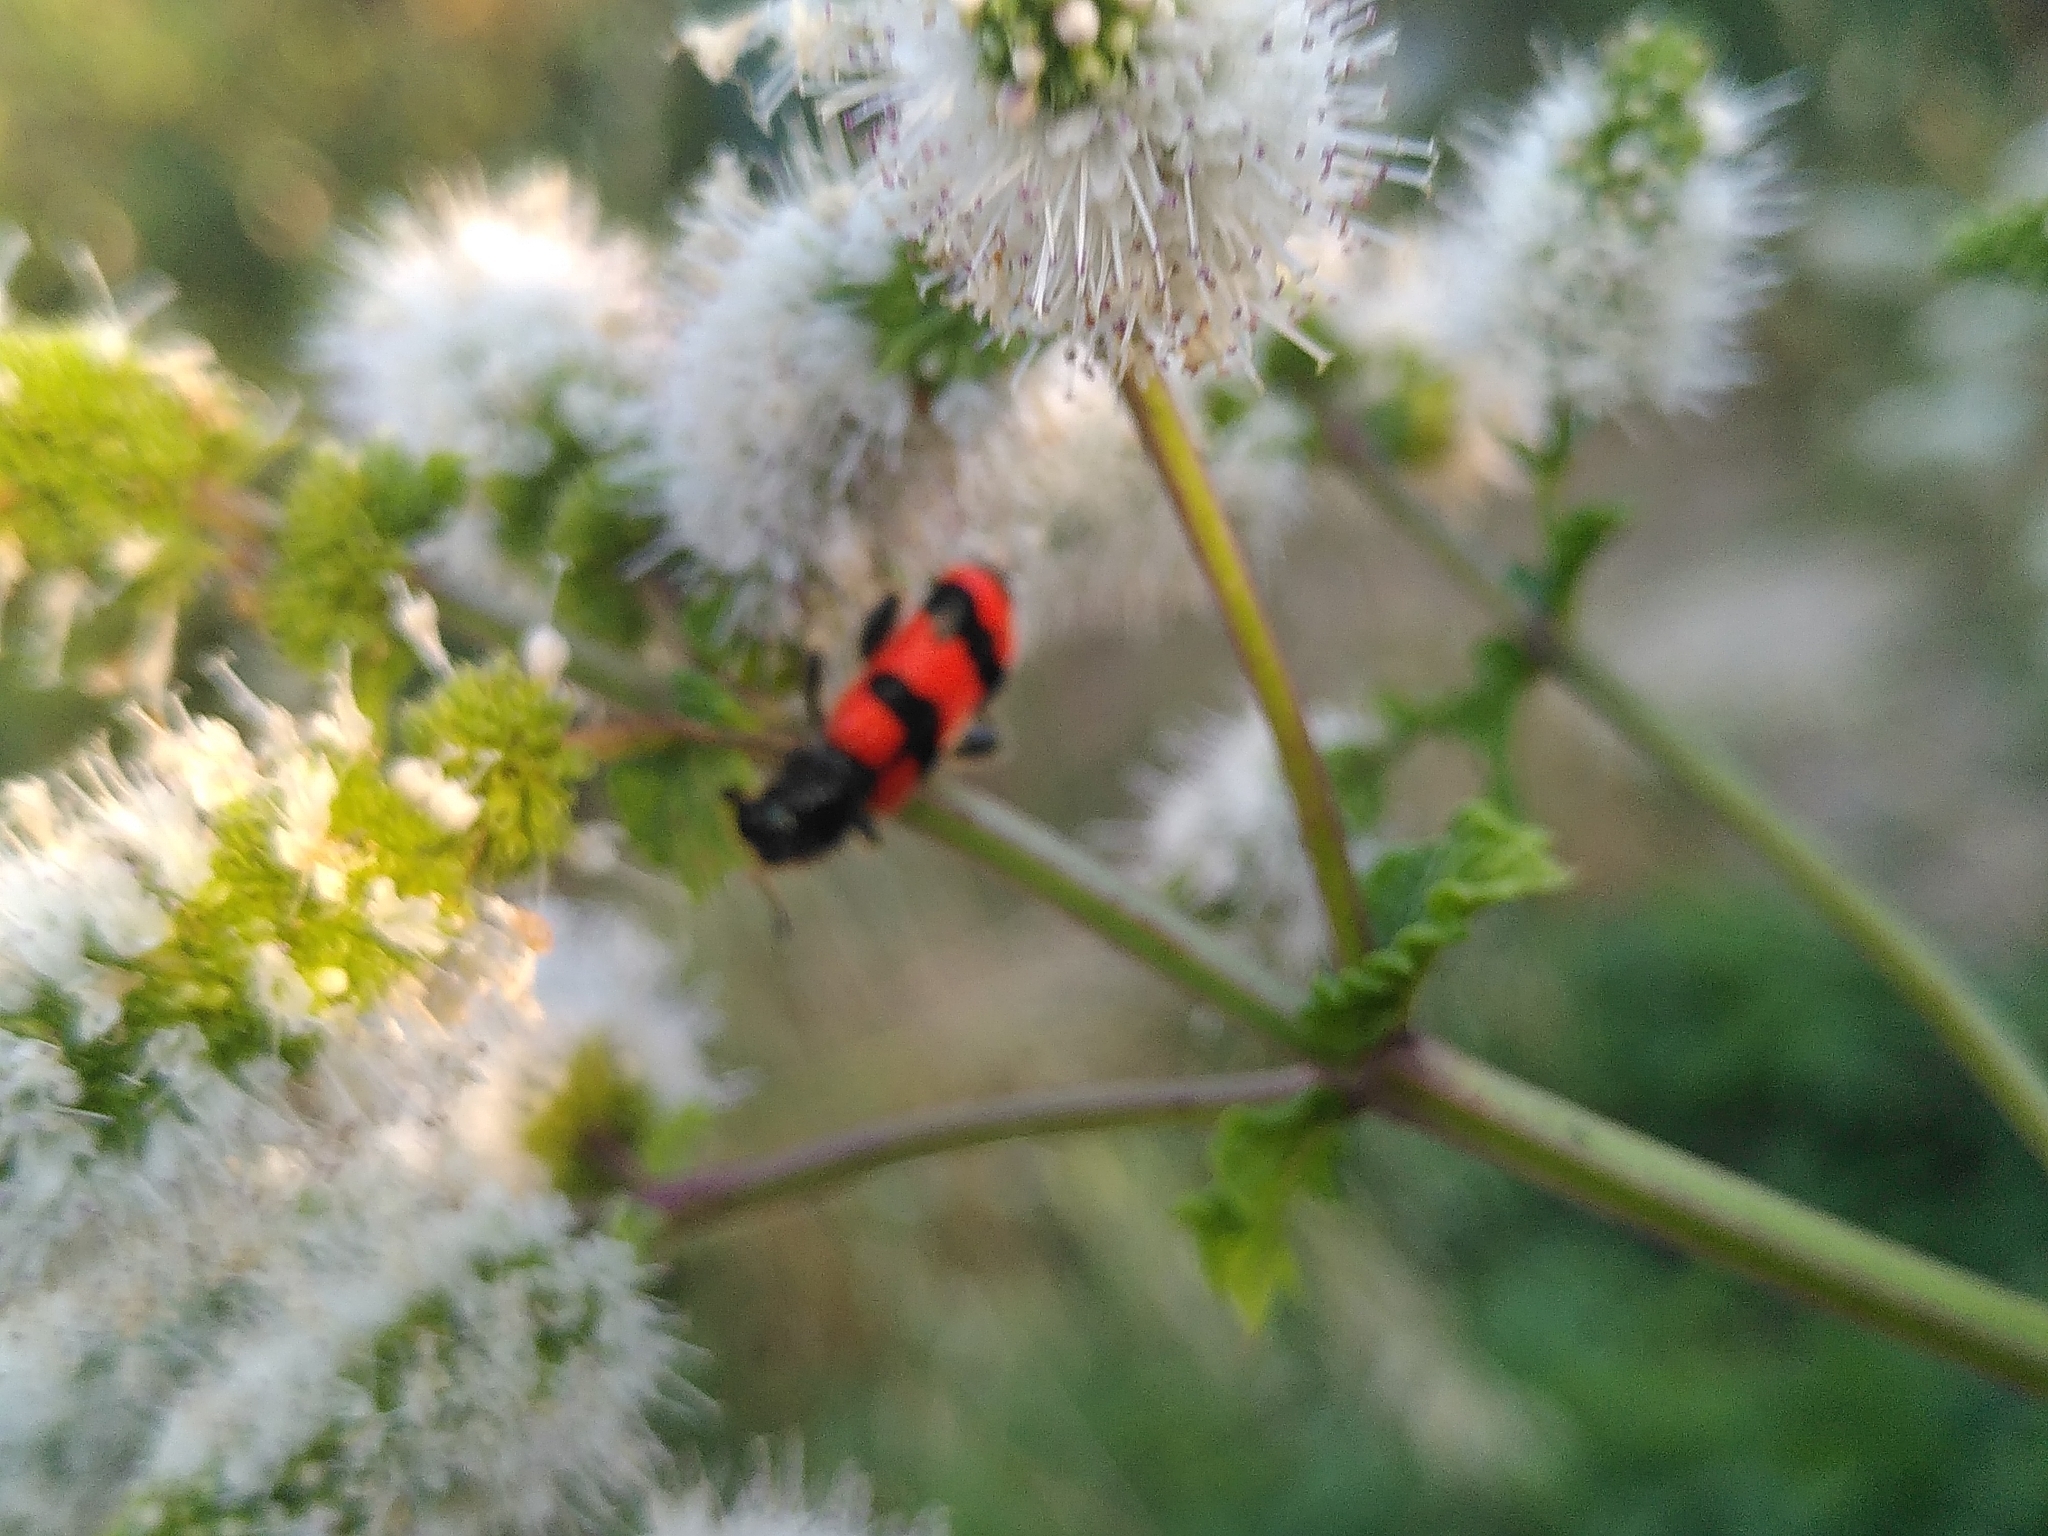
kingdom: Animalia
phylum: Arthropoda
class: Insecta
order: Coleoptera
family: Cleridae
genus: Trichodes
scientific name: Trichodes apiarius
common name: Bee-eating beetle
